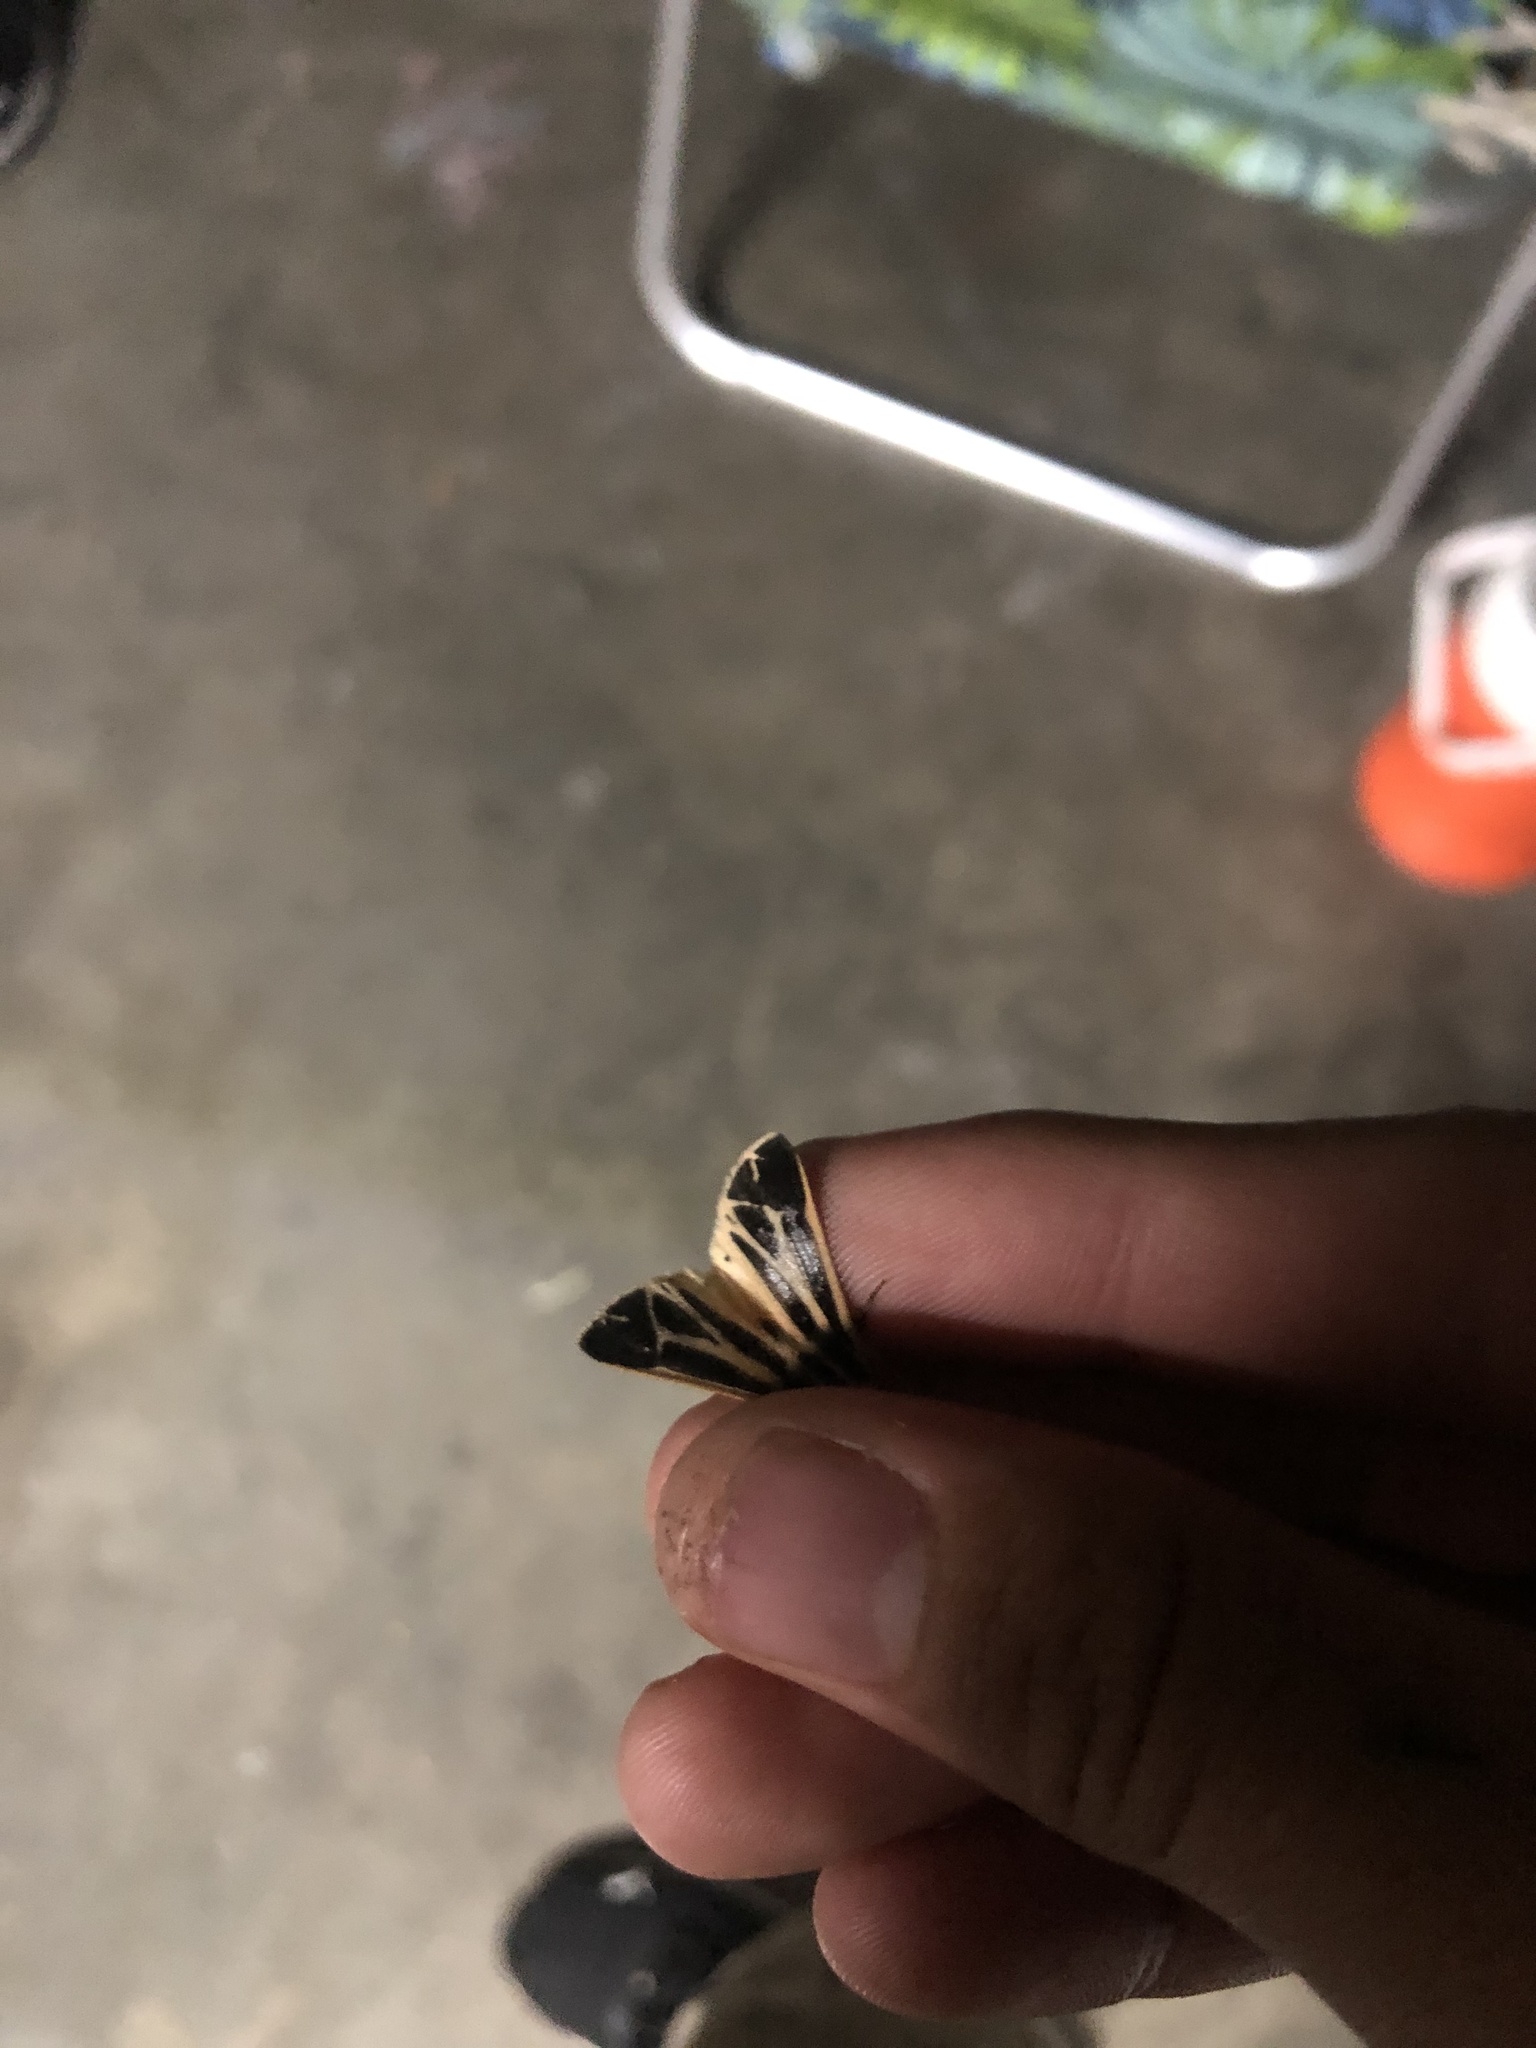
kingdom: Animalia
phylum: Arthropoda
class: Insecta
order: Lepidoptera
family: Erebidae
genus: Apantesis
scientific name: Apantesis phalerata
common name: Harnessed tiger moth
